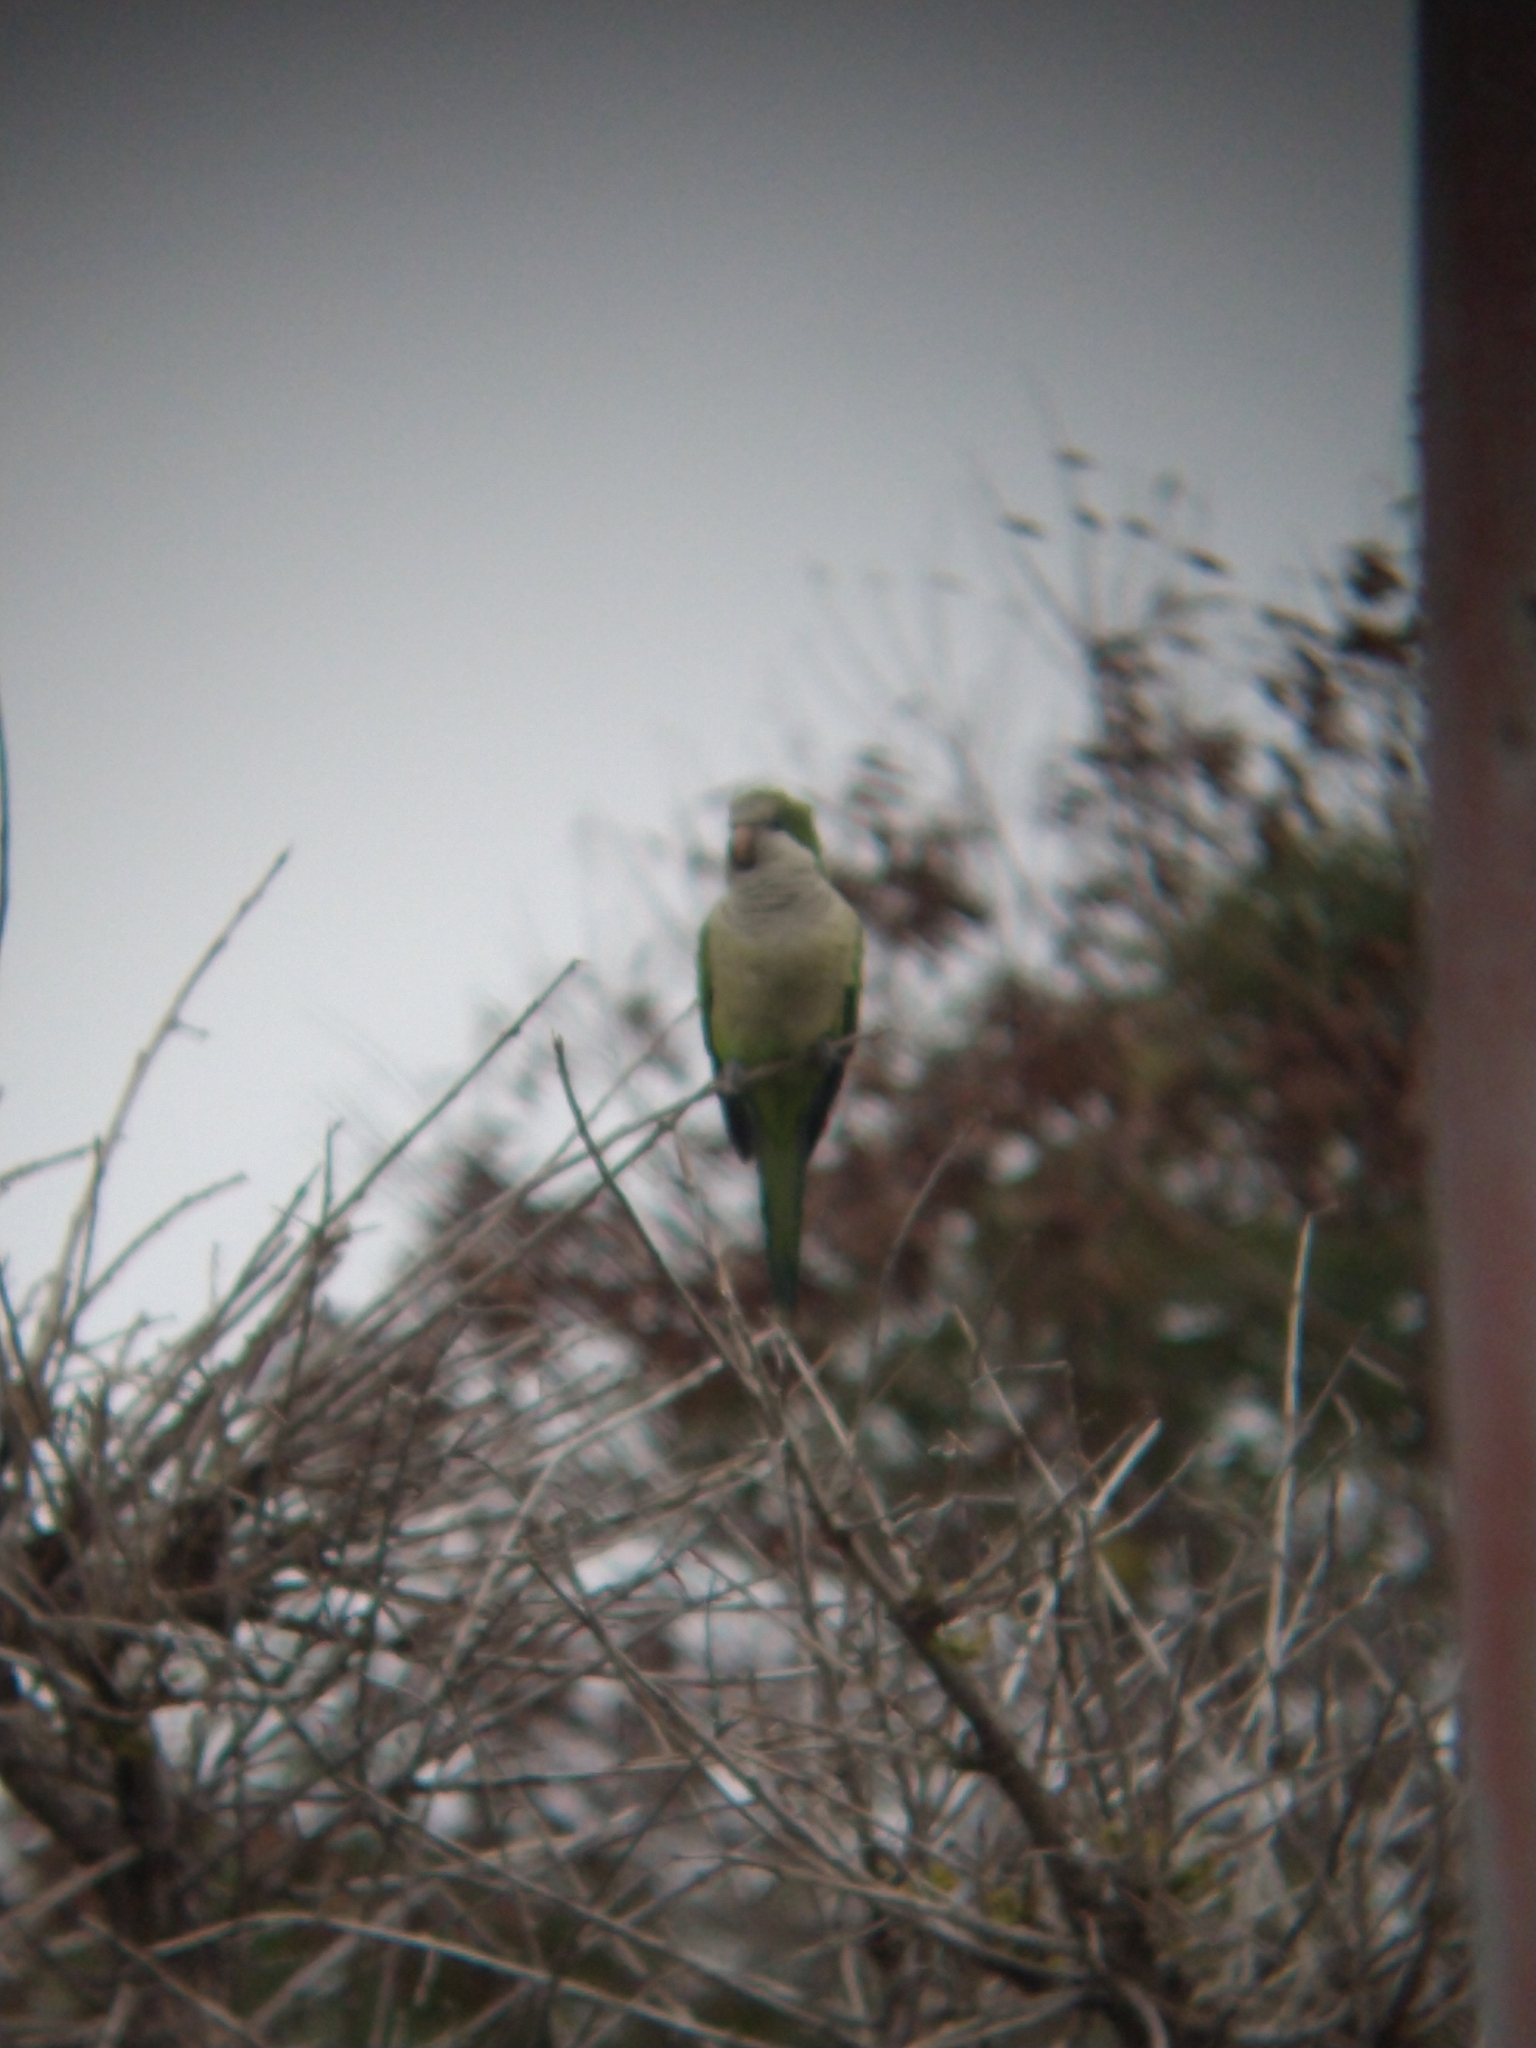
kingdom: Animalia
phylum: Chordata
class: Aves
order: Psittaciformes
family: Psittacidae
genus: Myiopsitta
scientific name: Myiopsitta monachus
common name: Monk parakeet
